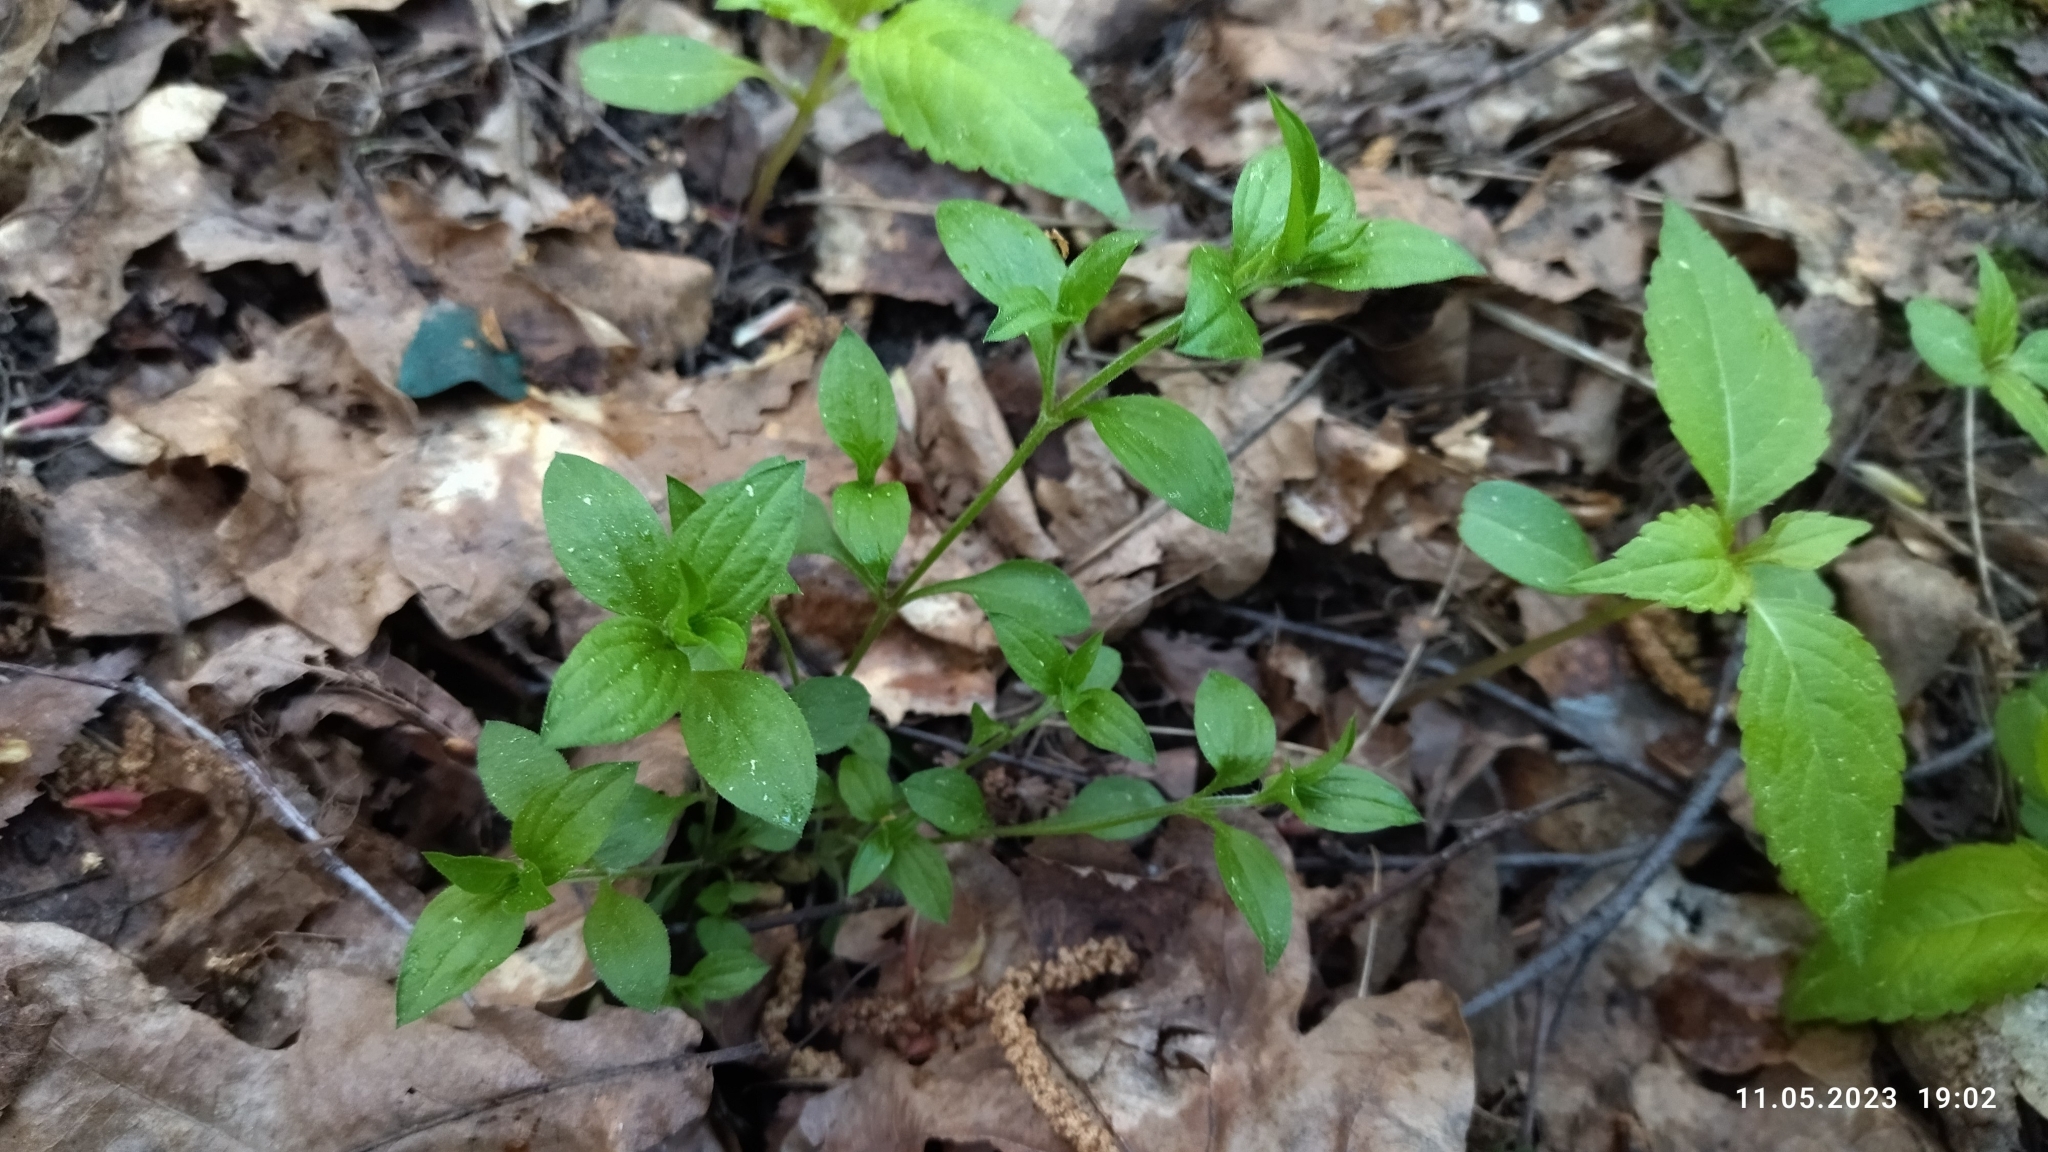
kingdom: Plantae
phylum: Tracheophyta
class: Magnoliopsida
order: Caryophyllales
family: Caryophyllaceae
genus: Moehringia
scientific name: Moehringia trinervia
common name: Three-nerved sandwort
